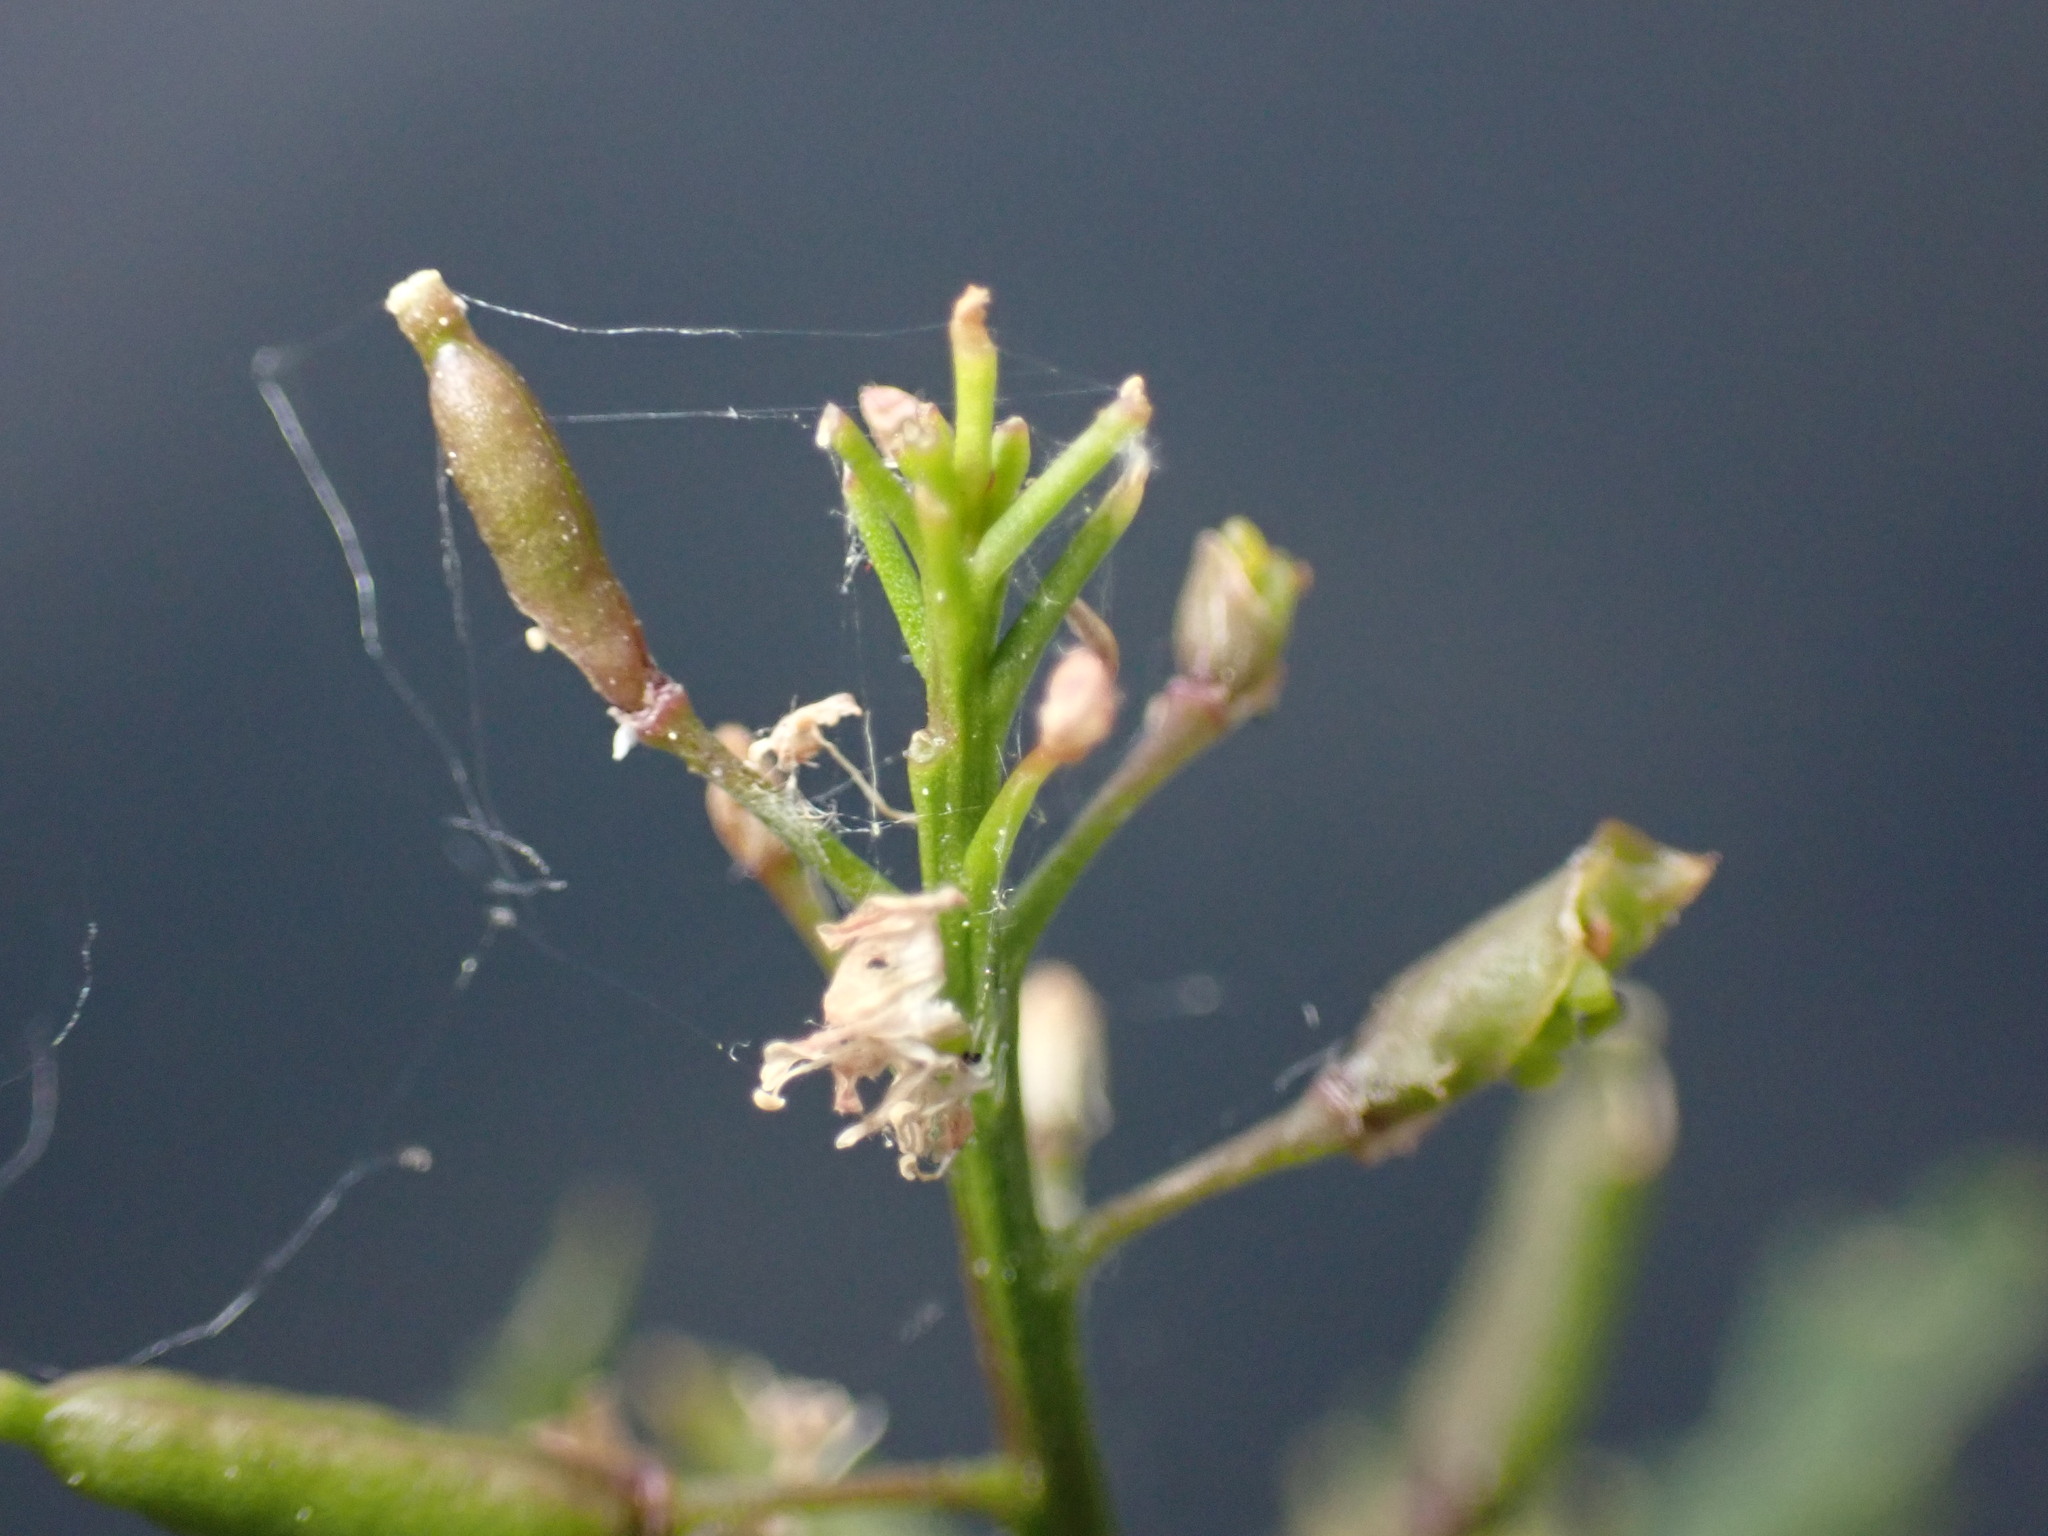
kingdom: Plantae
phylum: Tracheophyta
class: Magnoliopsida
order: Brassicales
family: Brassicaceae
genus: Rorippa
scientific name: Rorippa palustris
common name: Marsh yellow-cress
